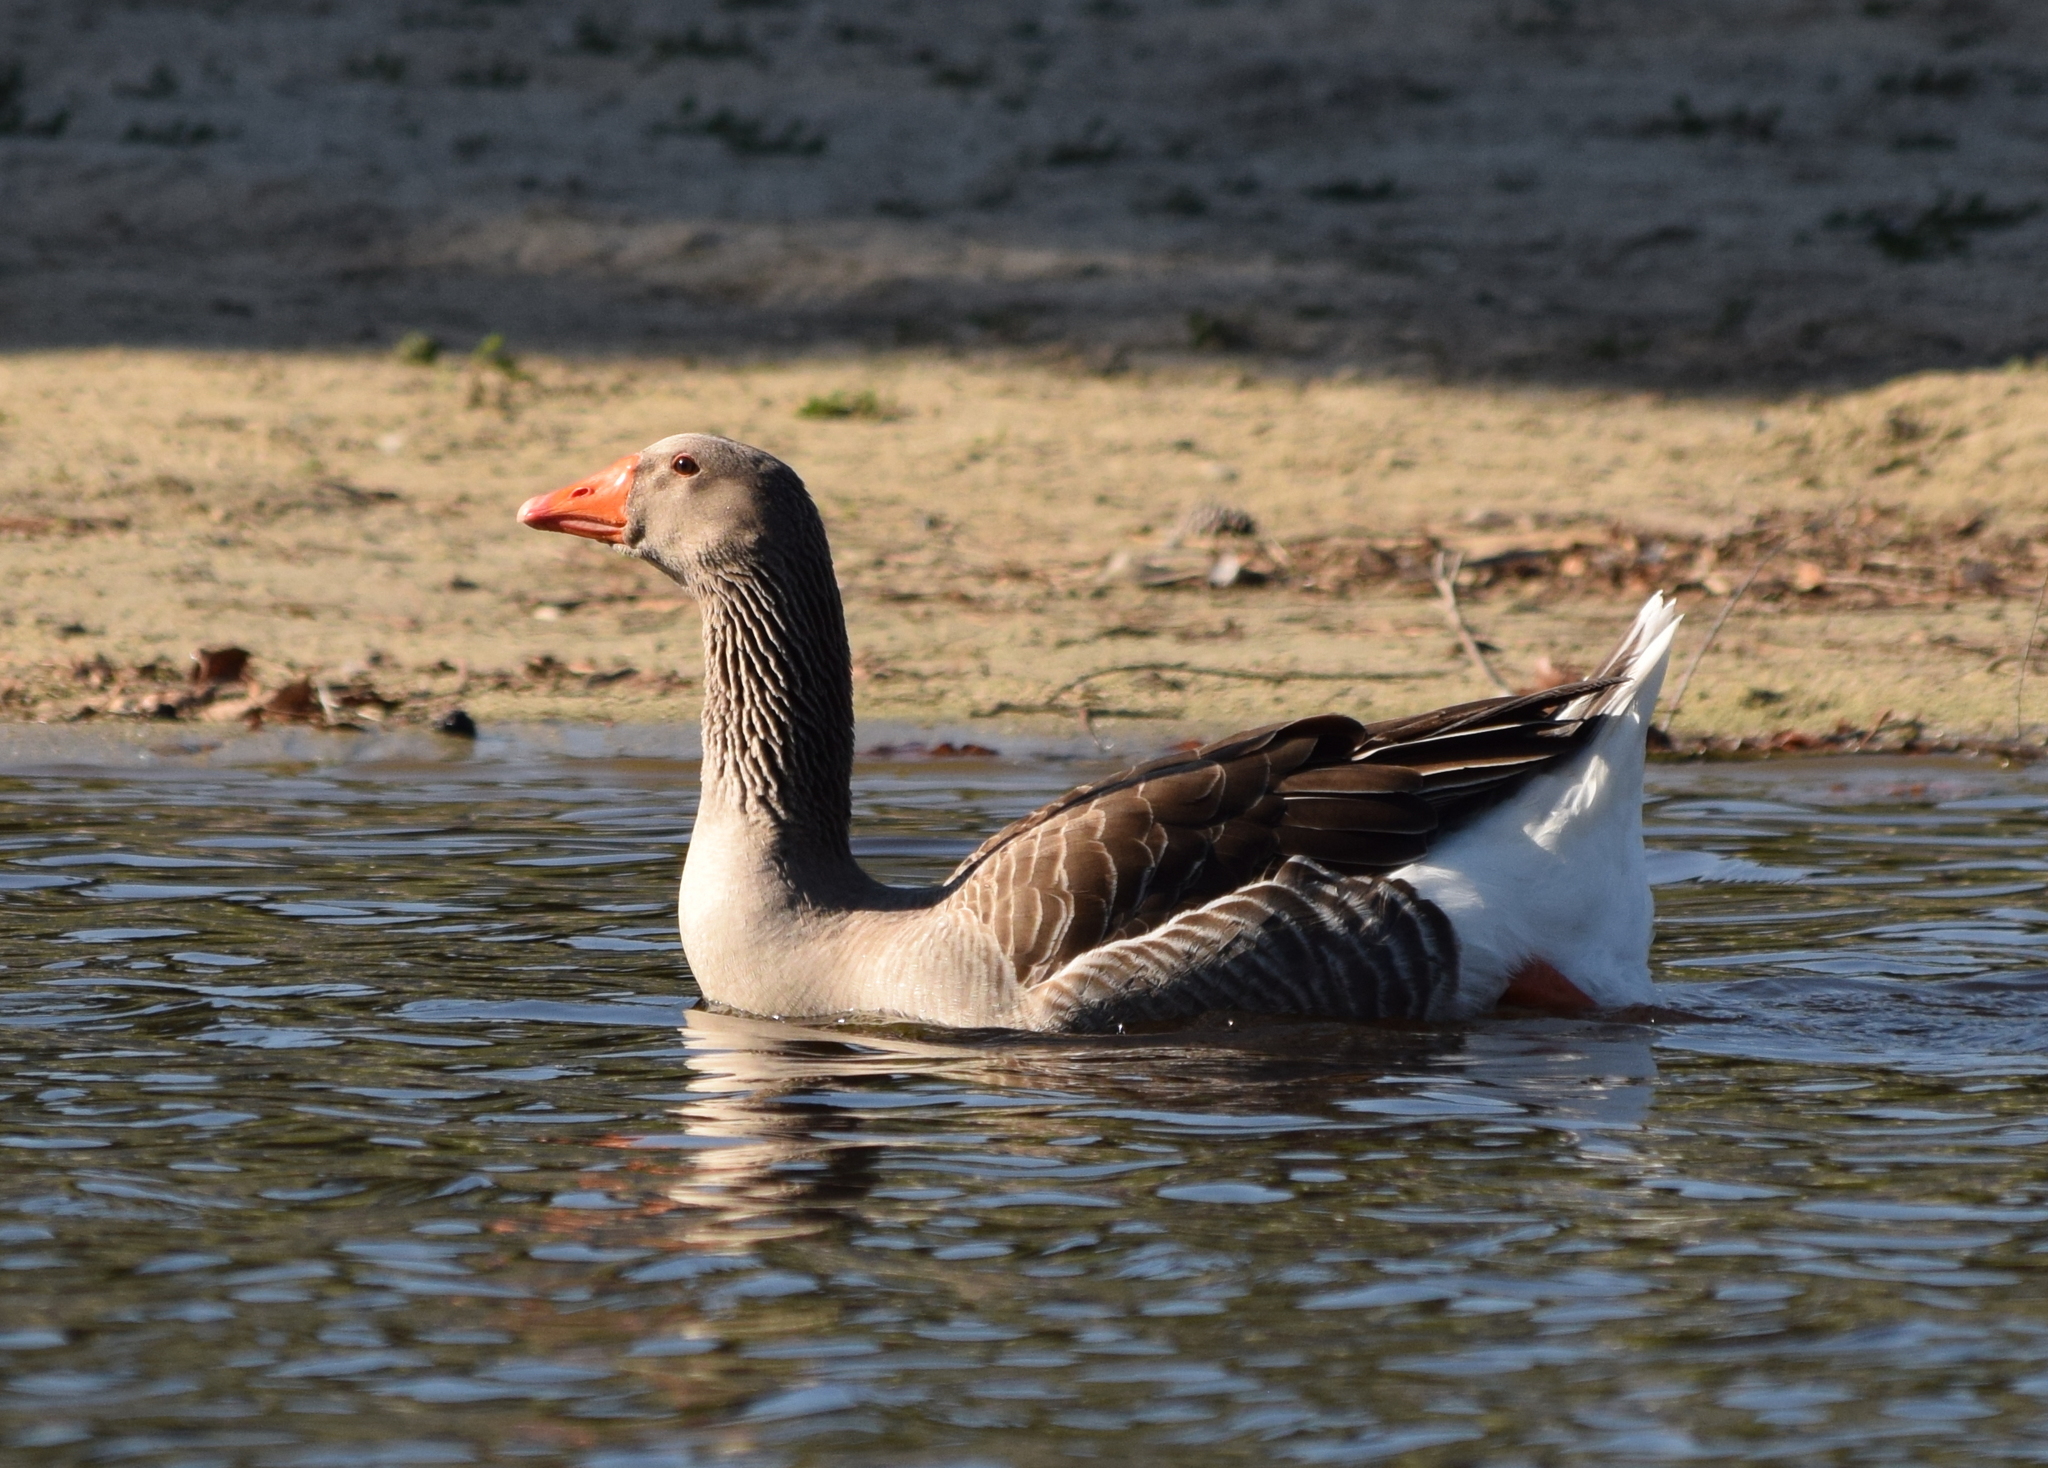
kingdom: Animalia
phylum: Chordata
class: Aves
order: Anseriformes
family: Anatidae
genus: Anser
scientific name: Anser anser
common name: Greylag goose
